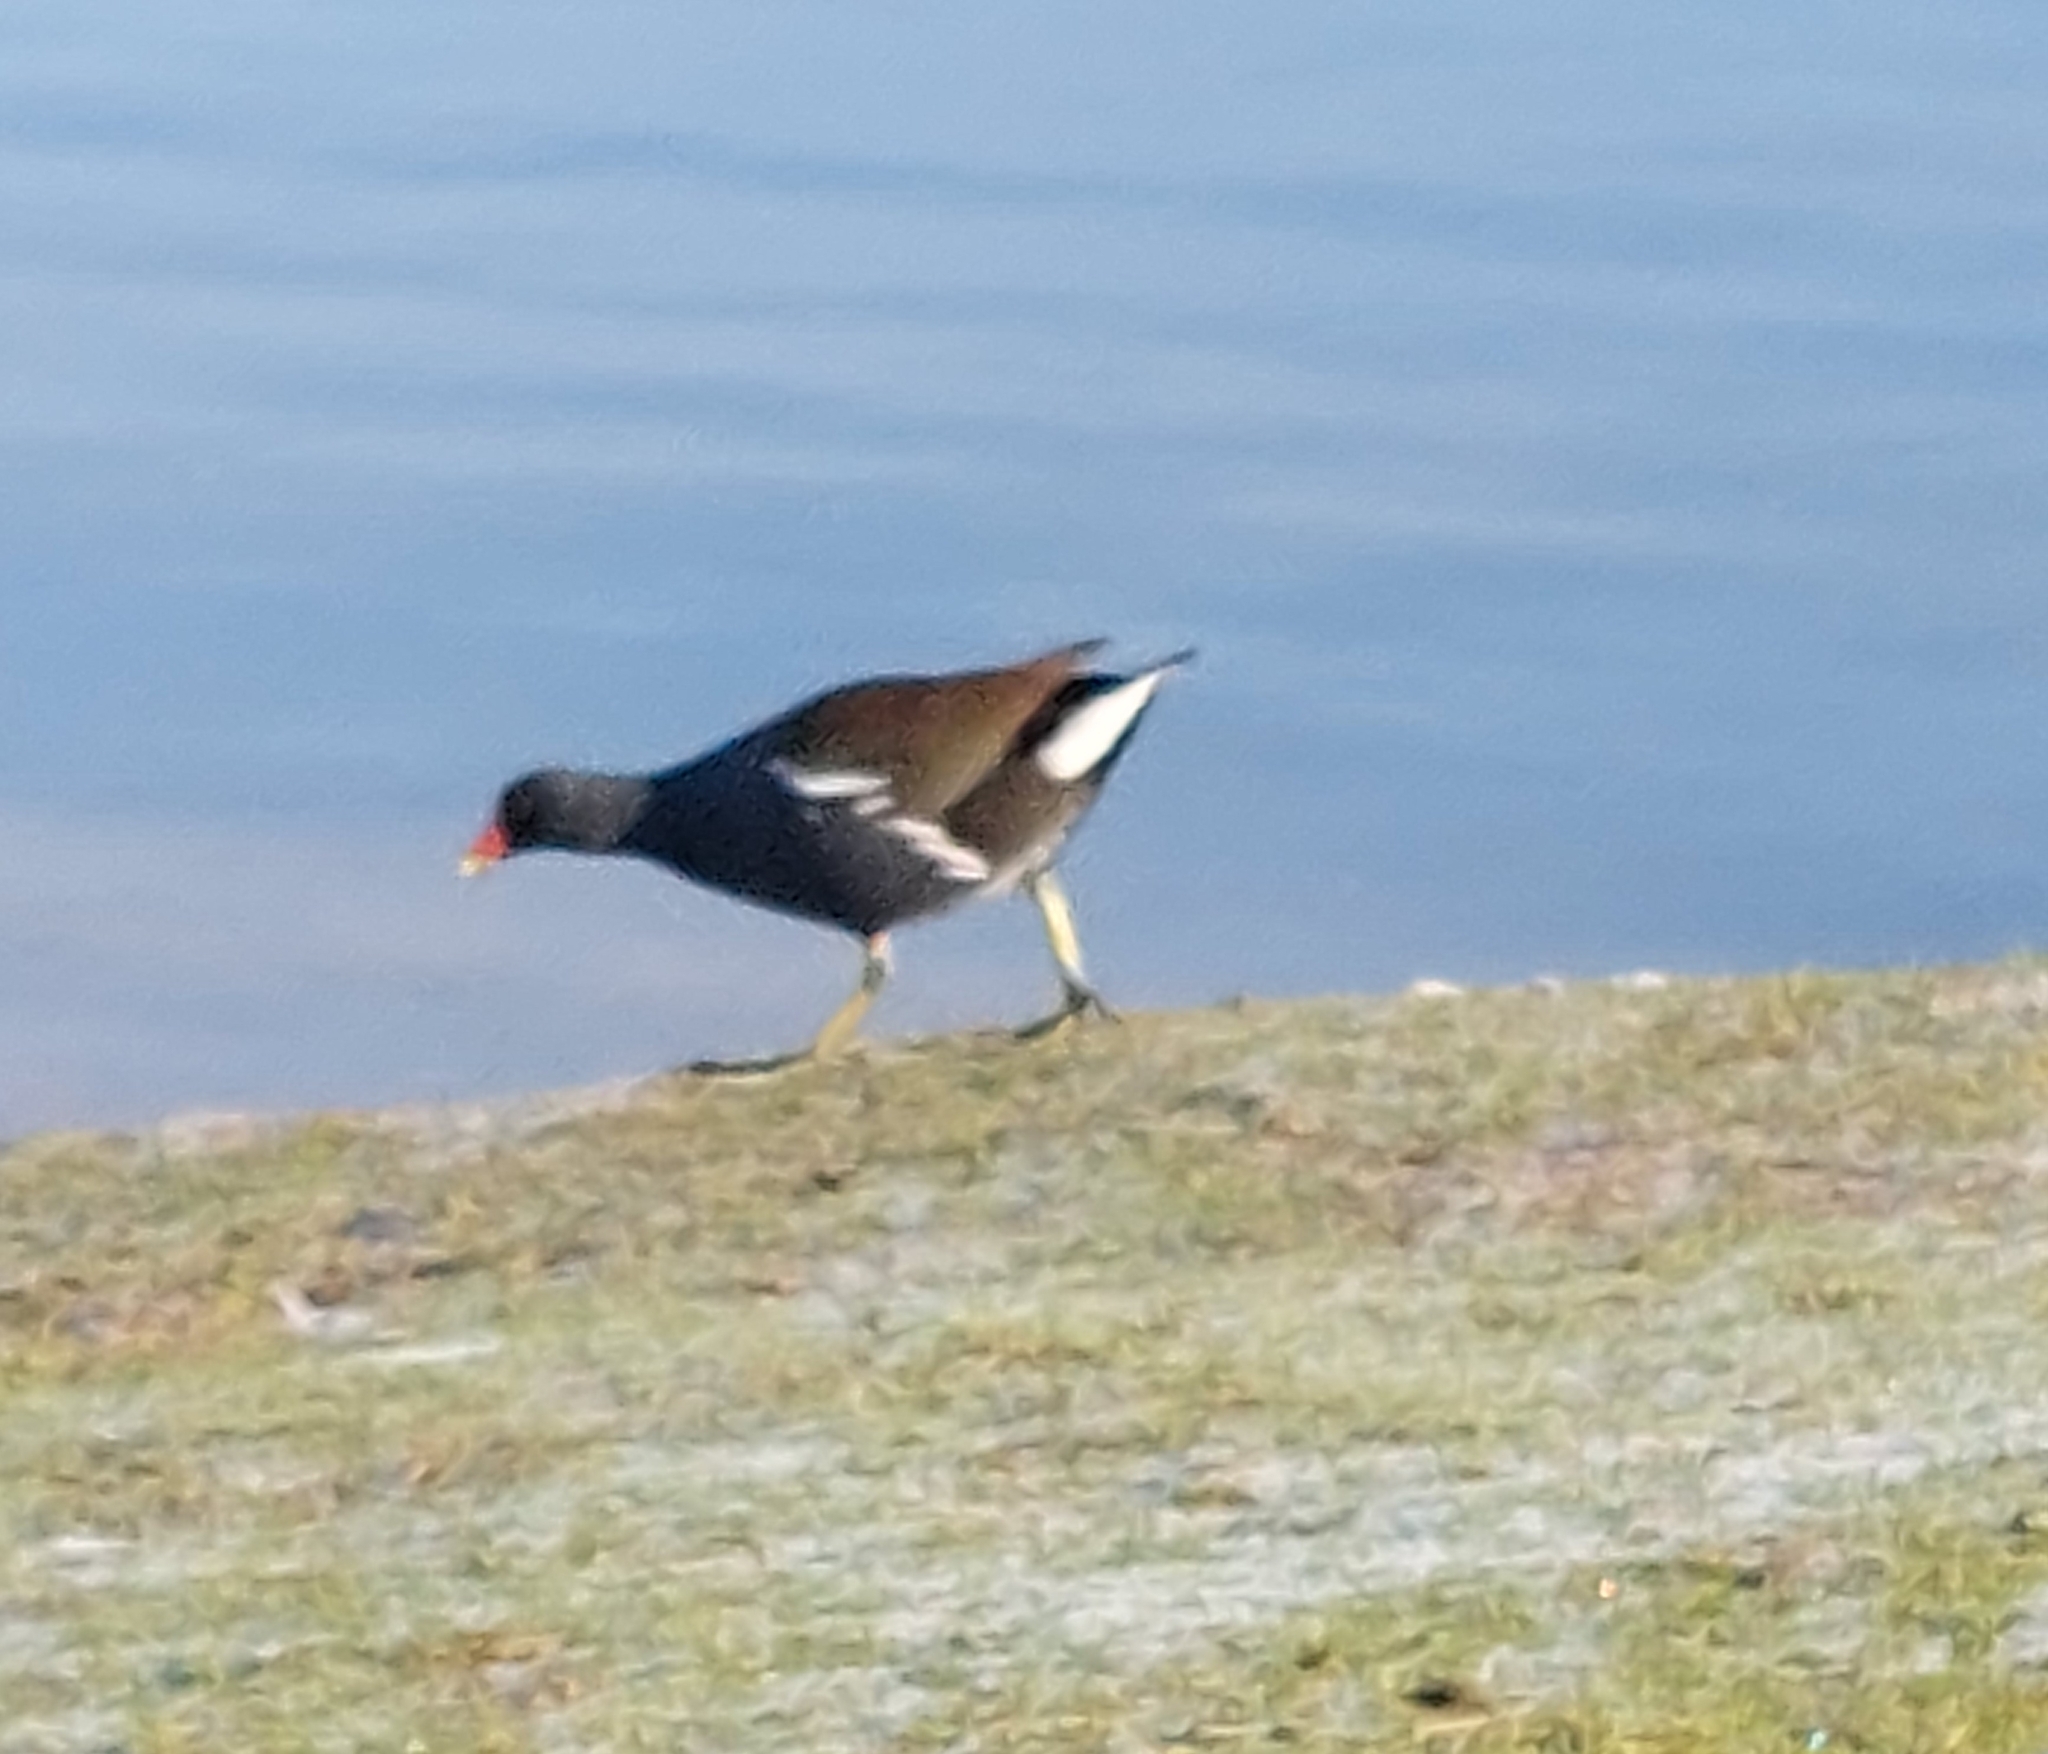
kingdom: Animalia
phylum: Chordata
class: Aves
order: Gruiformes
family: Rallidae
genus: Gallinula
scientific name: Gallinula chloropus
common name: Common moorhen
